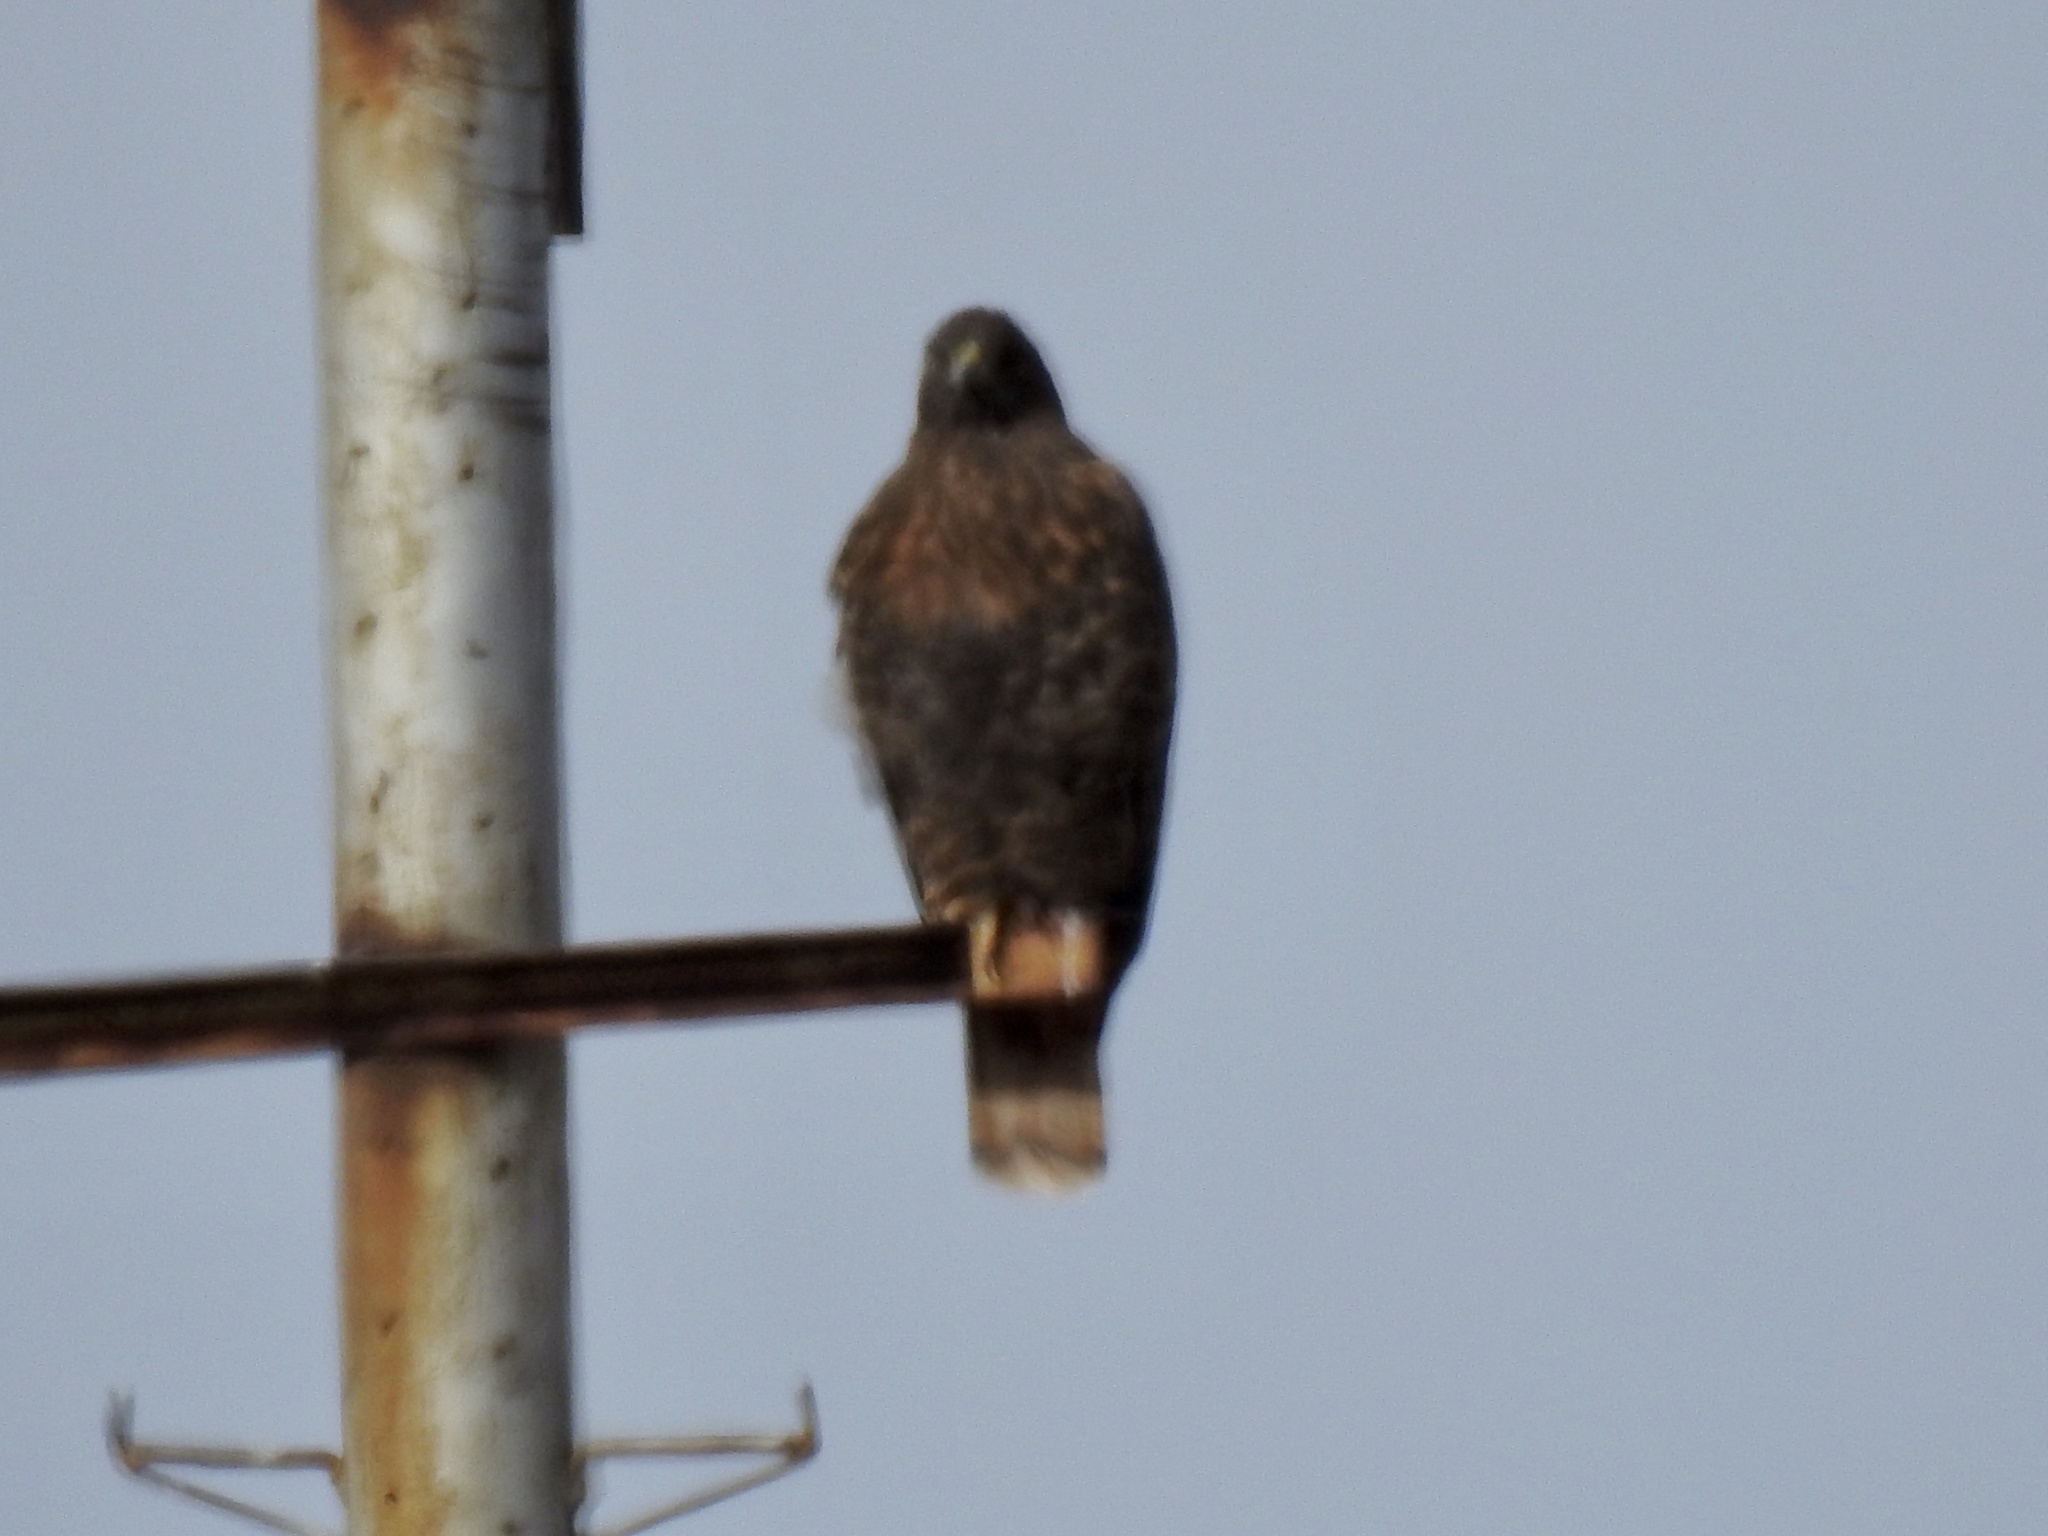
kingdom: Animalia
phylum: Chordata
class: Aves
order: Accipitriformes
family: Accipitridae
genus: Buteo
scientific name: Buteo jamaicensis
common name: Red-tailed hawk
